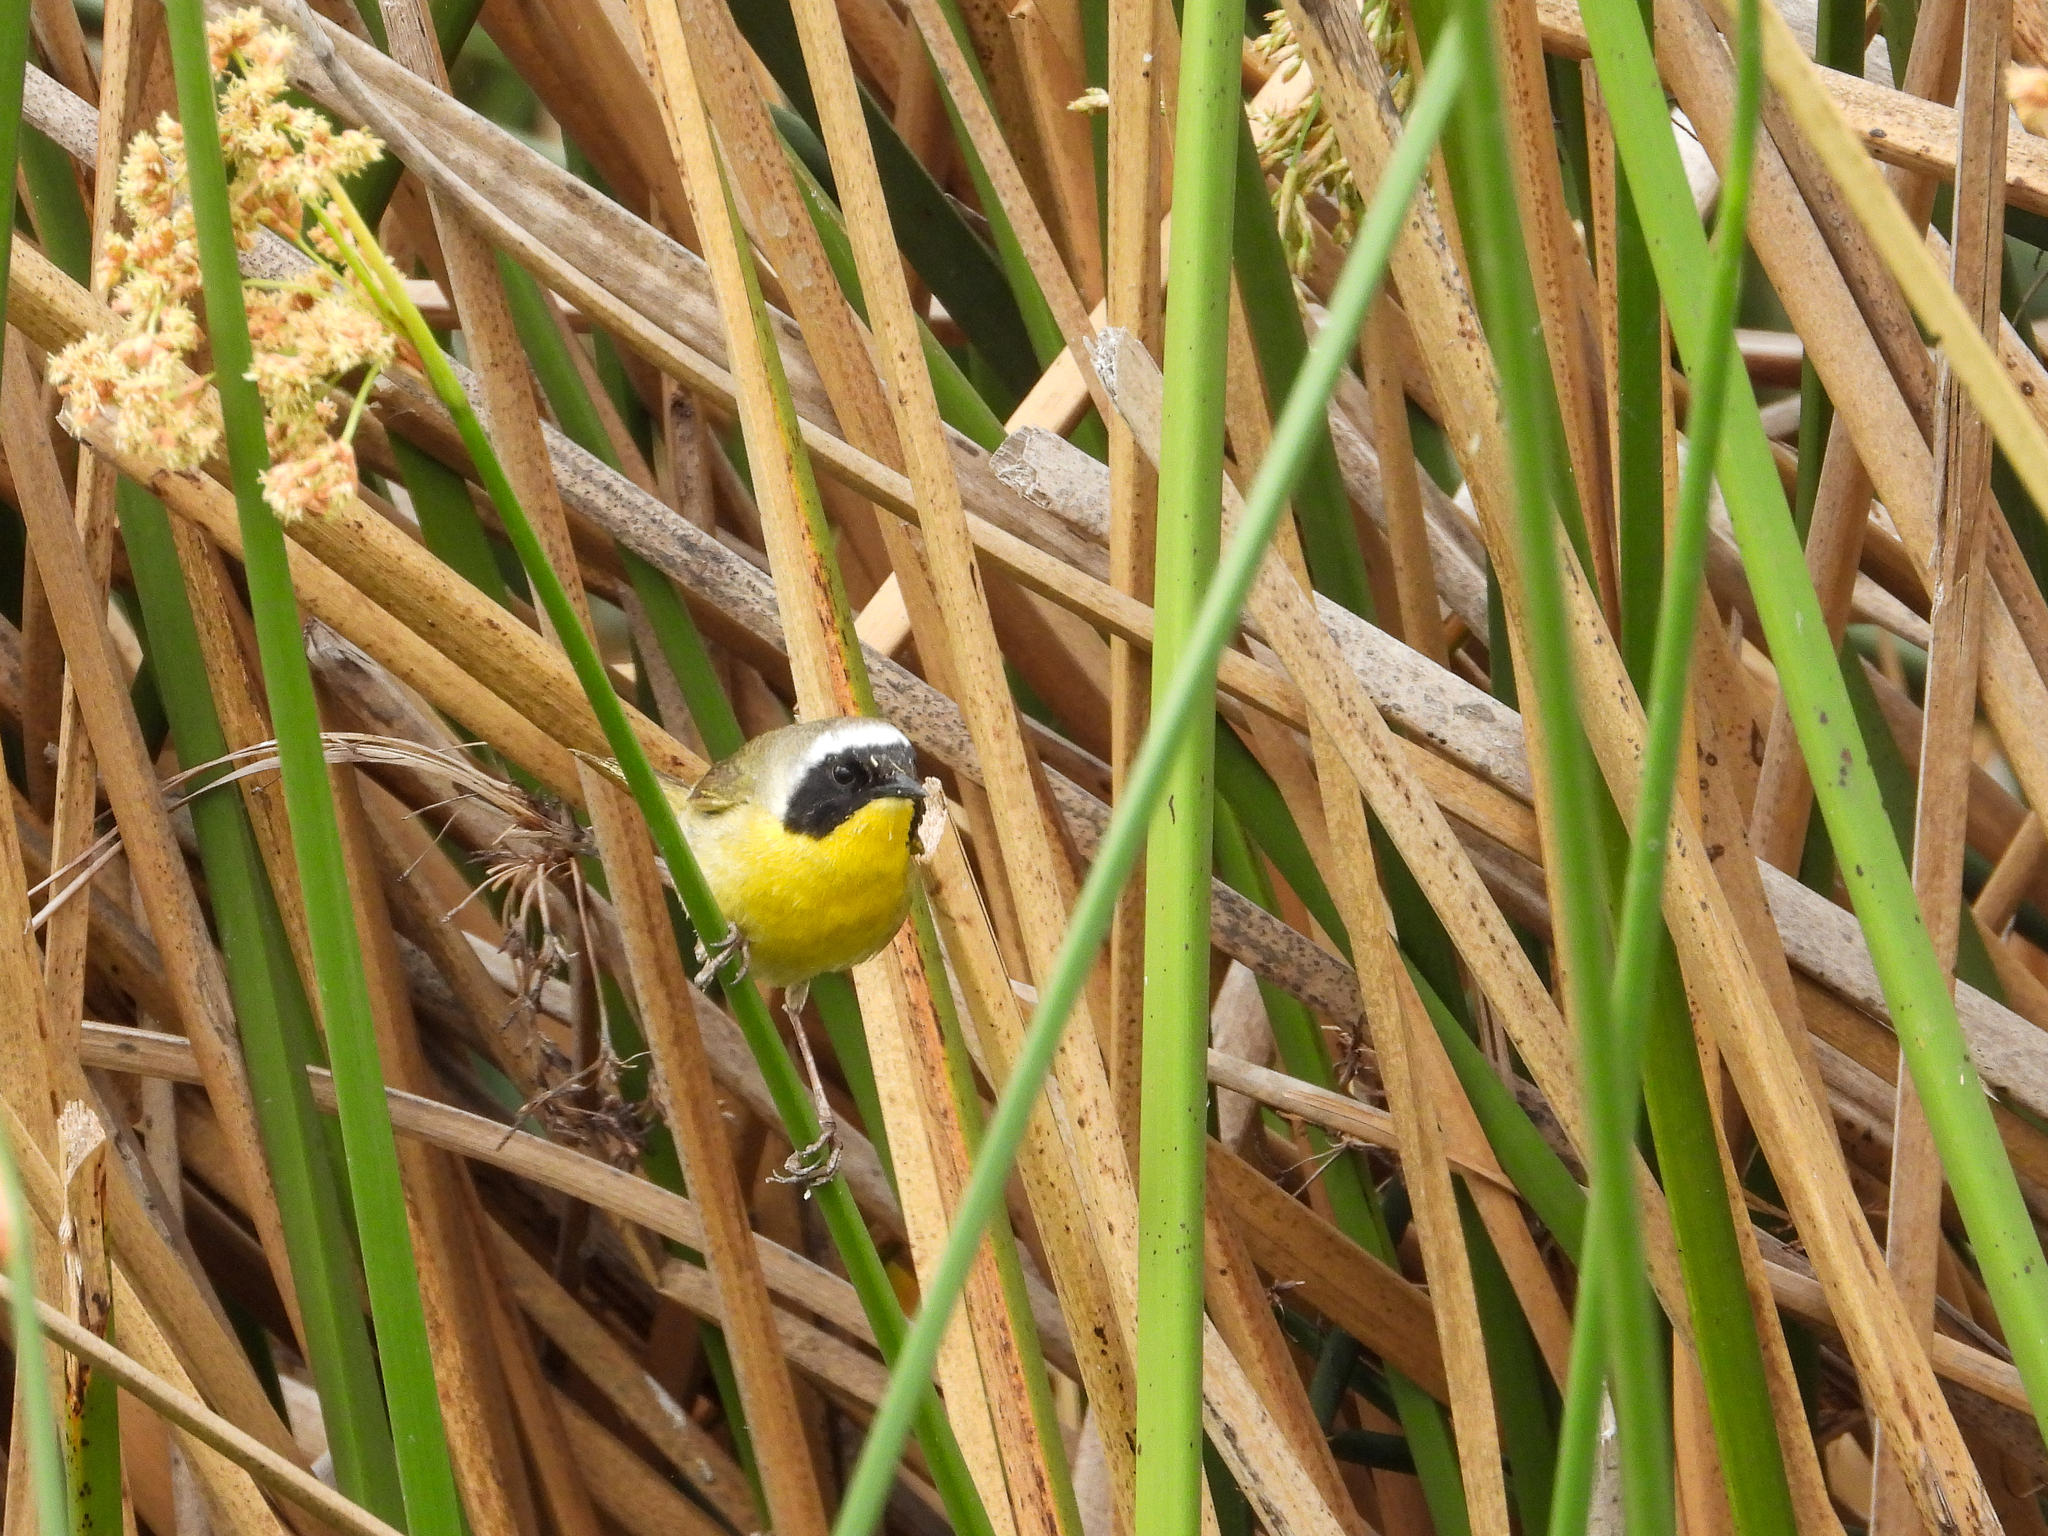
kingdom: Animalia
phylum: Chordata
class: Aves
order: Passeriformes
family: Parulidae
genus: Geothlypis
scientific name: Geothlypis trichas
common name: Common yellowthroat
